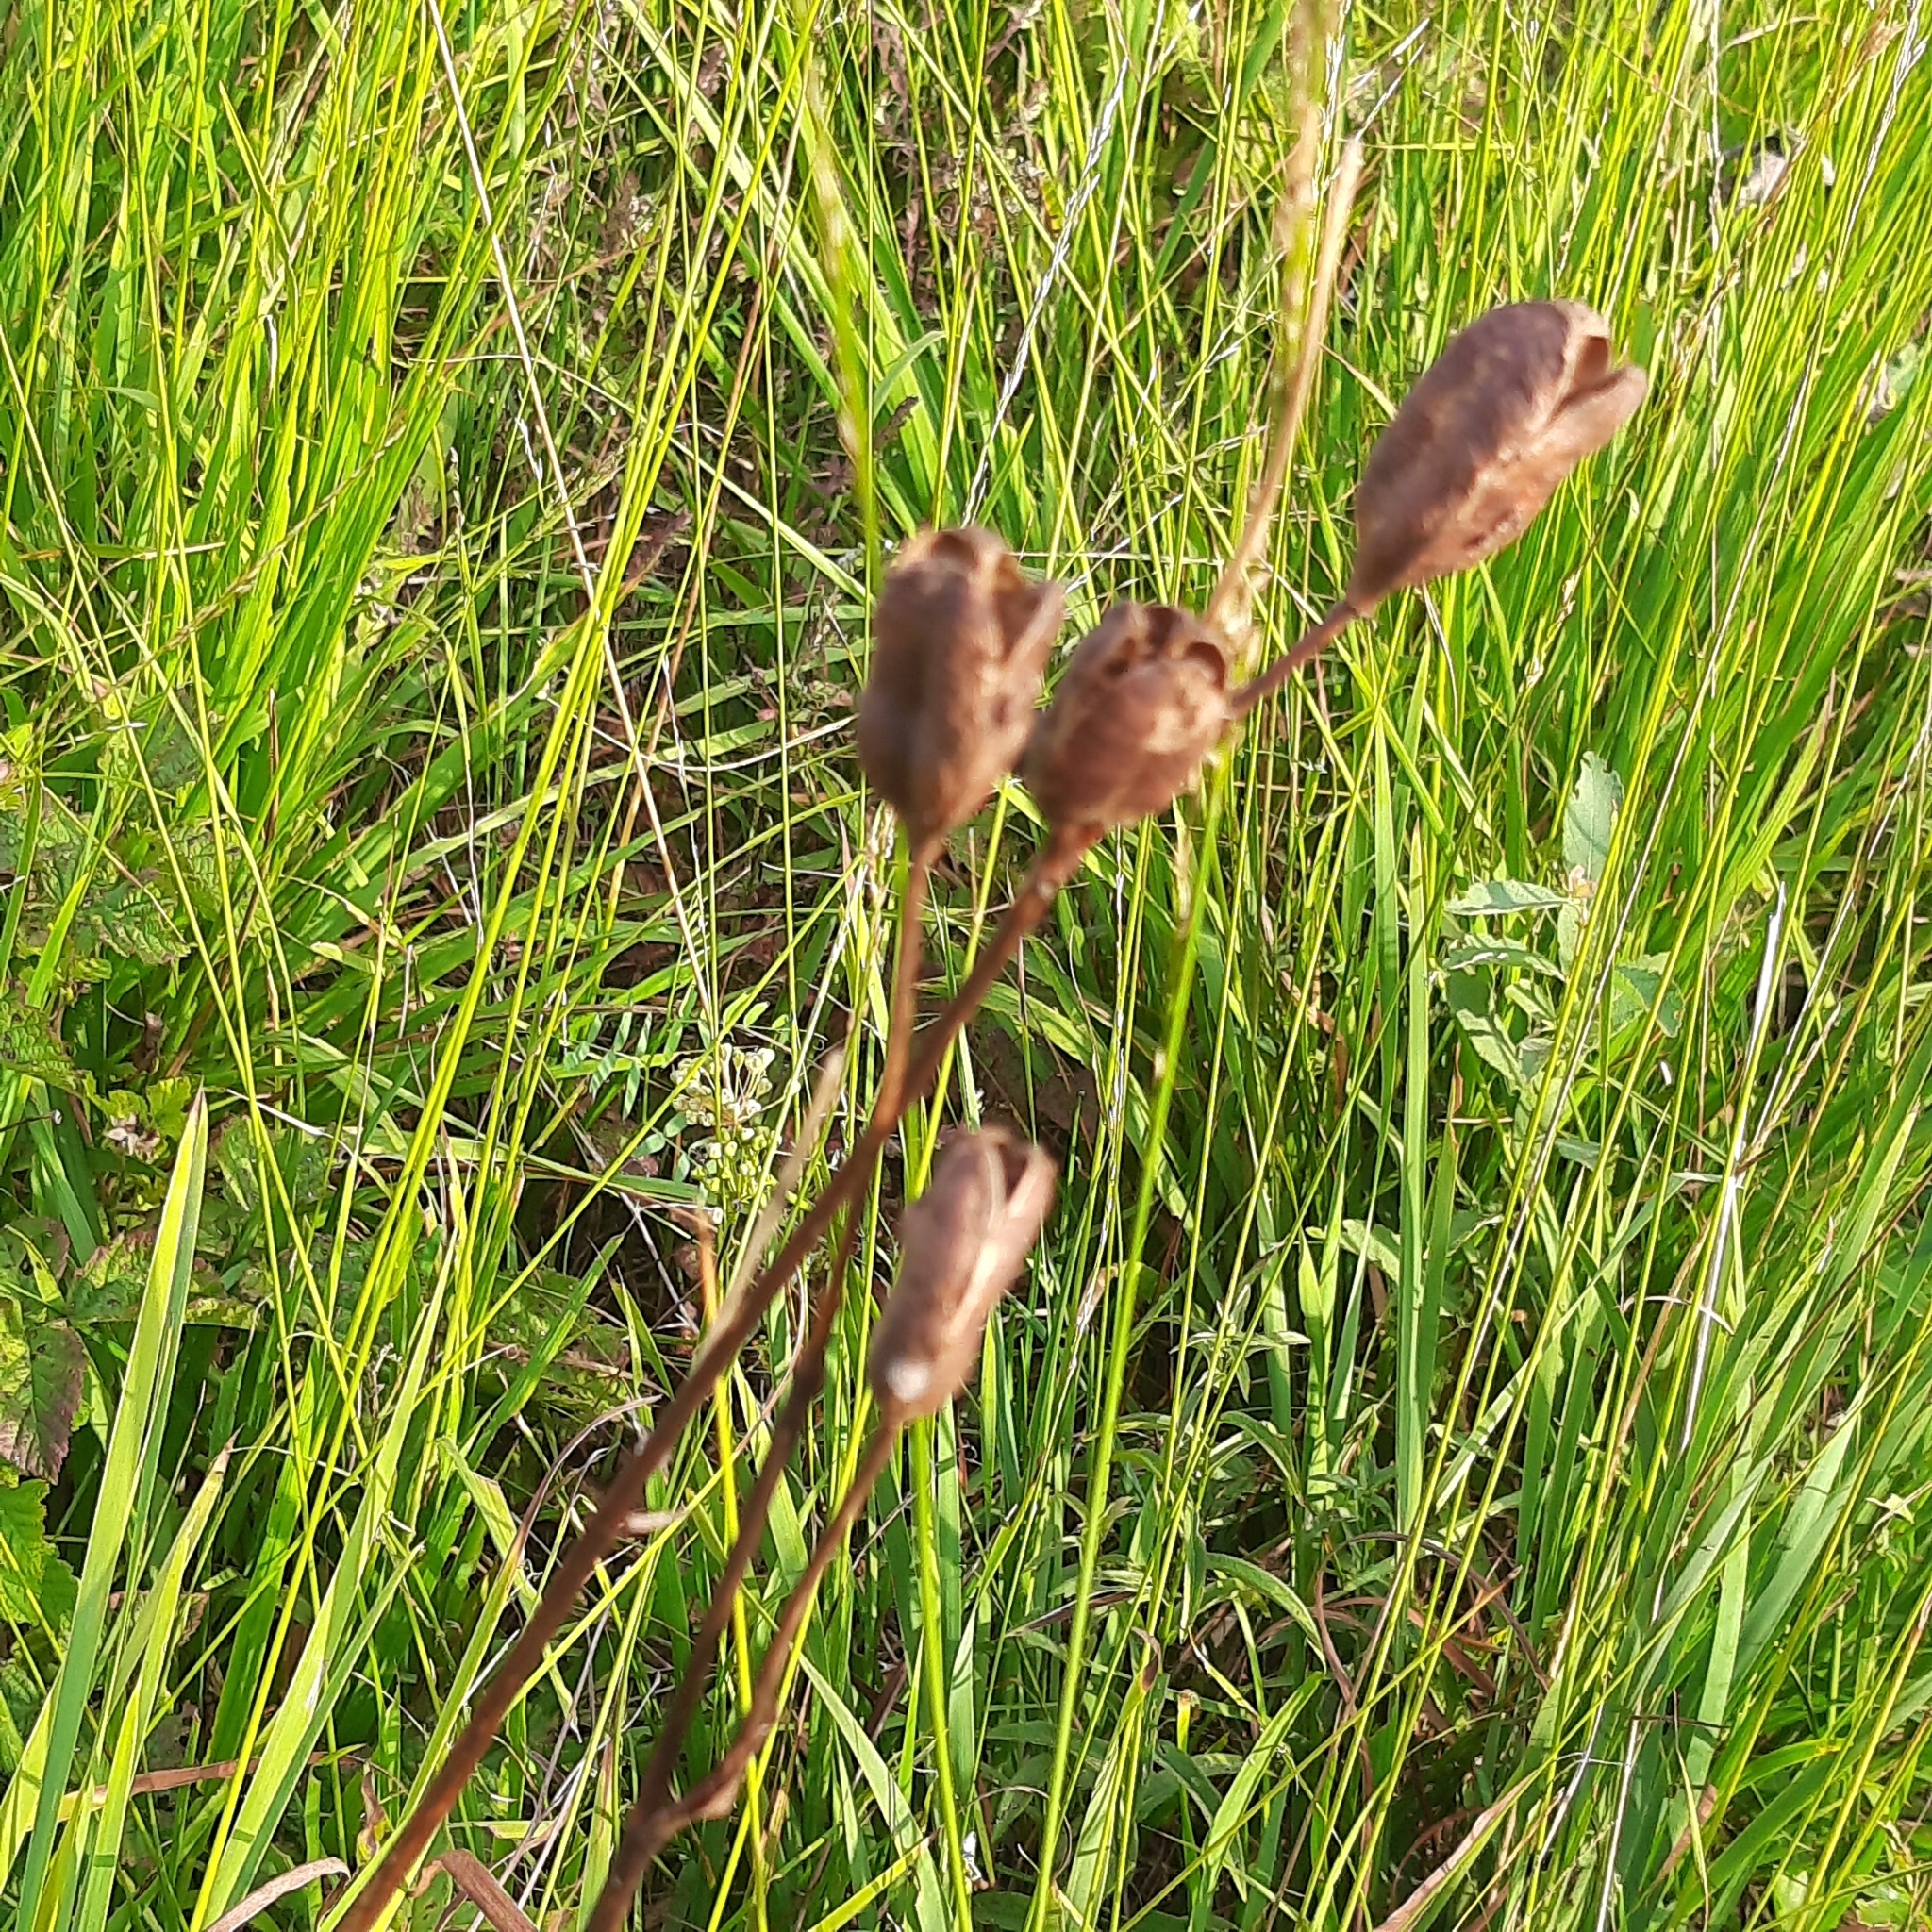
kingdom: Plantae
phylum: Tracheophyta
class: Liliopsida
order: Asparagales
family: Iridaceae
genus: Iris
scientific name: Iris sibirica
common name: Siberian iris
